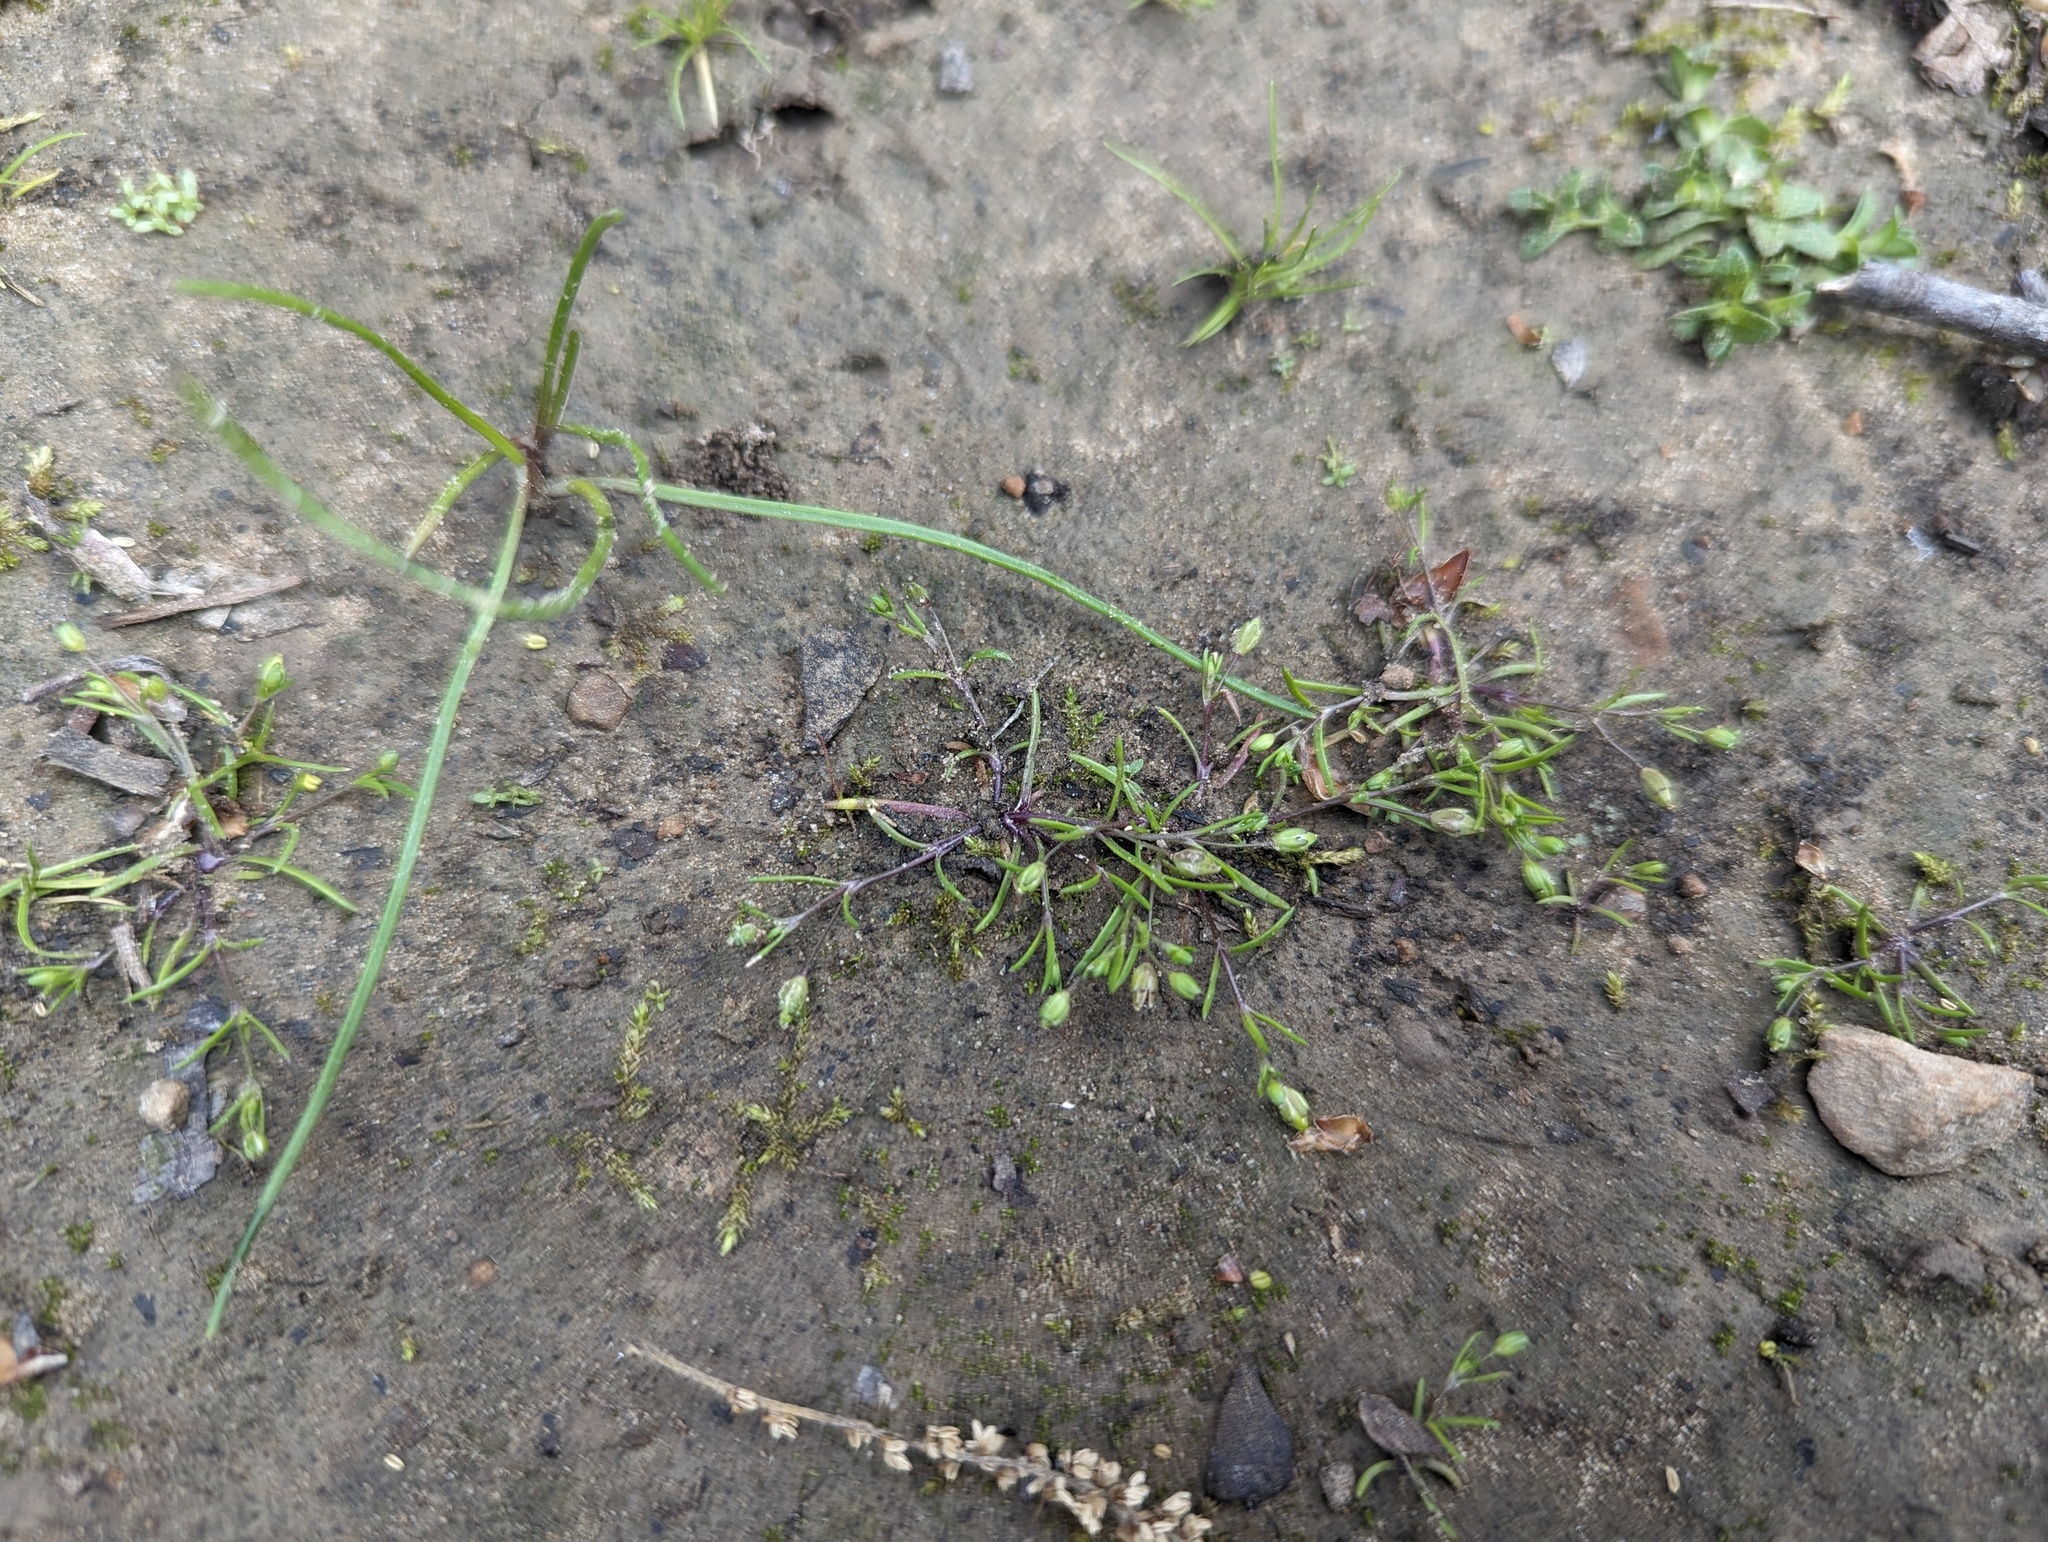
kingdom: Plantae
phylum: Tracheophyta
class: Magnoliopsida
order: Caryophyllales
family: Caryophyllaceae
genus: Sagina
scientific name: Sagina decumbens
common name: Decumbent pearlwort
